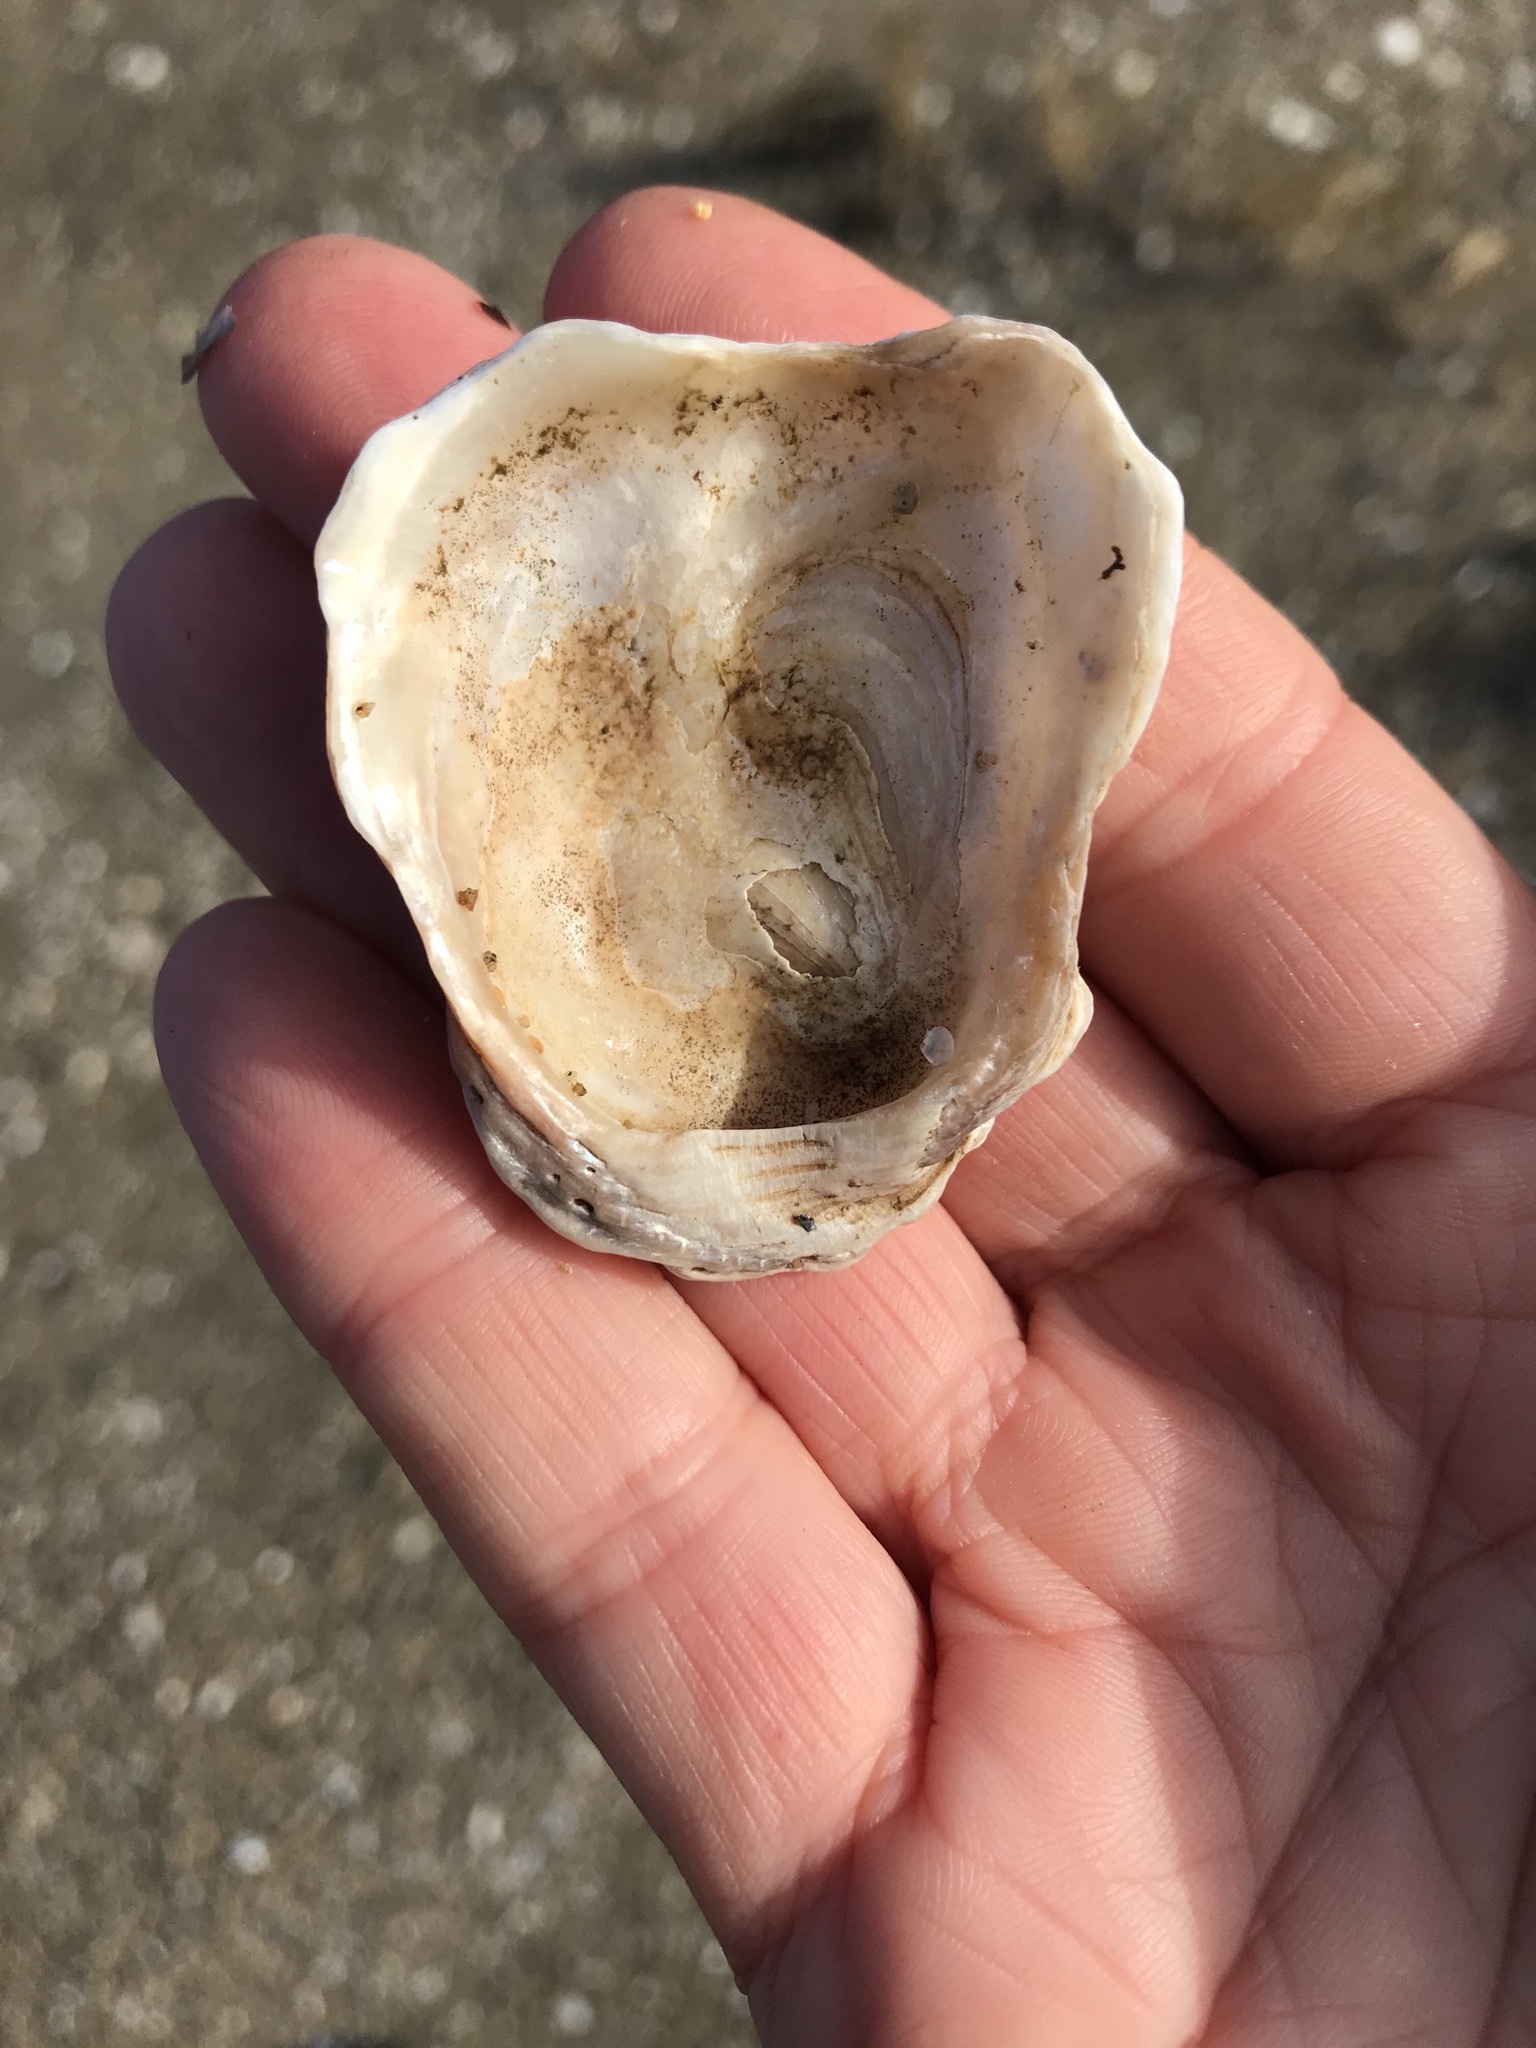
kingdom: Animalia
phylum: Mollusca
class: Bivalvia
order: Ostreida
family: Ostreidae
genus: Magallana
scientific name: Magallana gigas
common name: Pacific oyster
